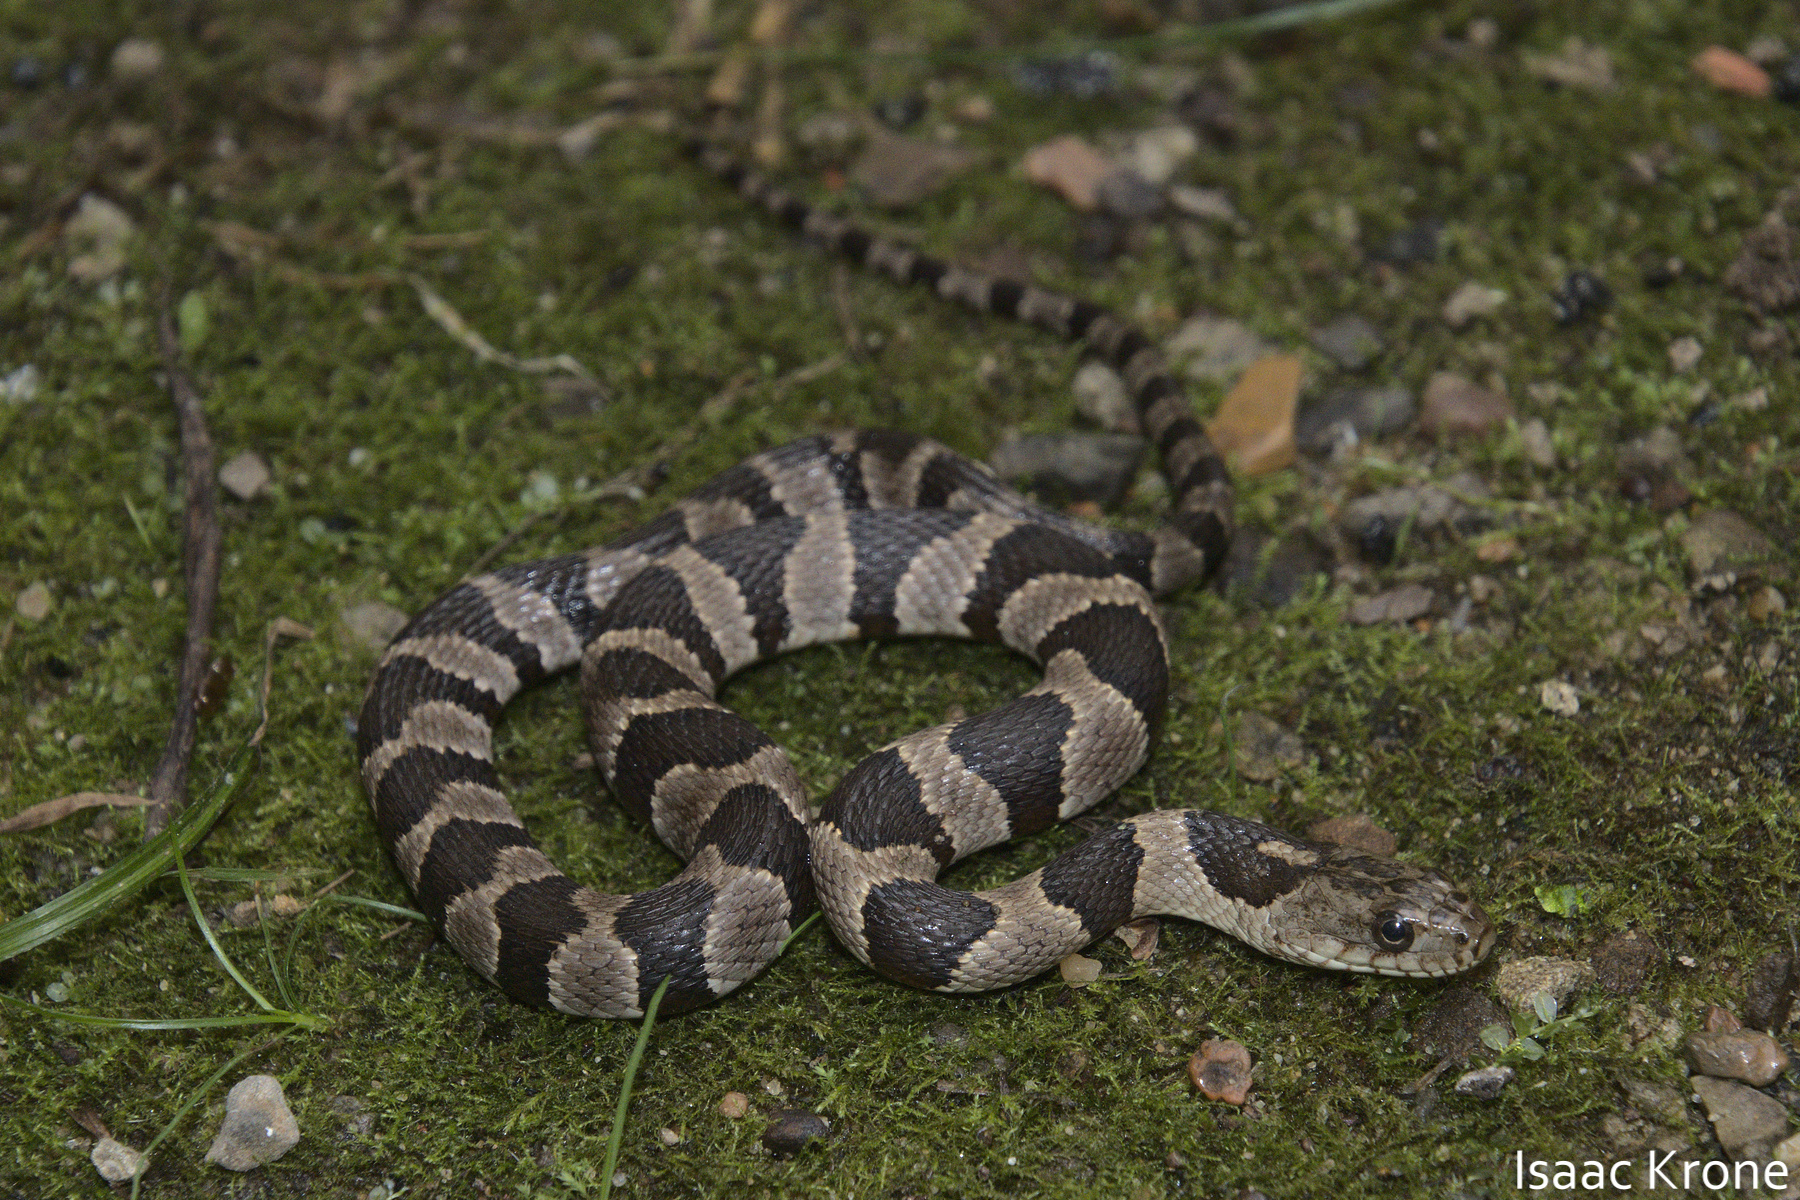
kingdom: Animalia
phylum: Chordata
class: Squamata
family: Colubridae
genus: Nerodia
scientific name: Nerodia sipedon
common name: Northern water snake
